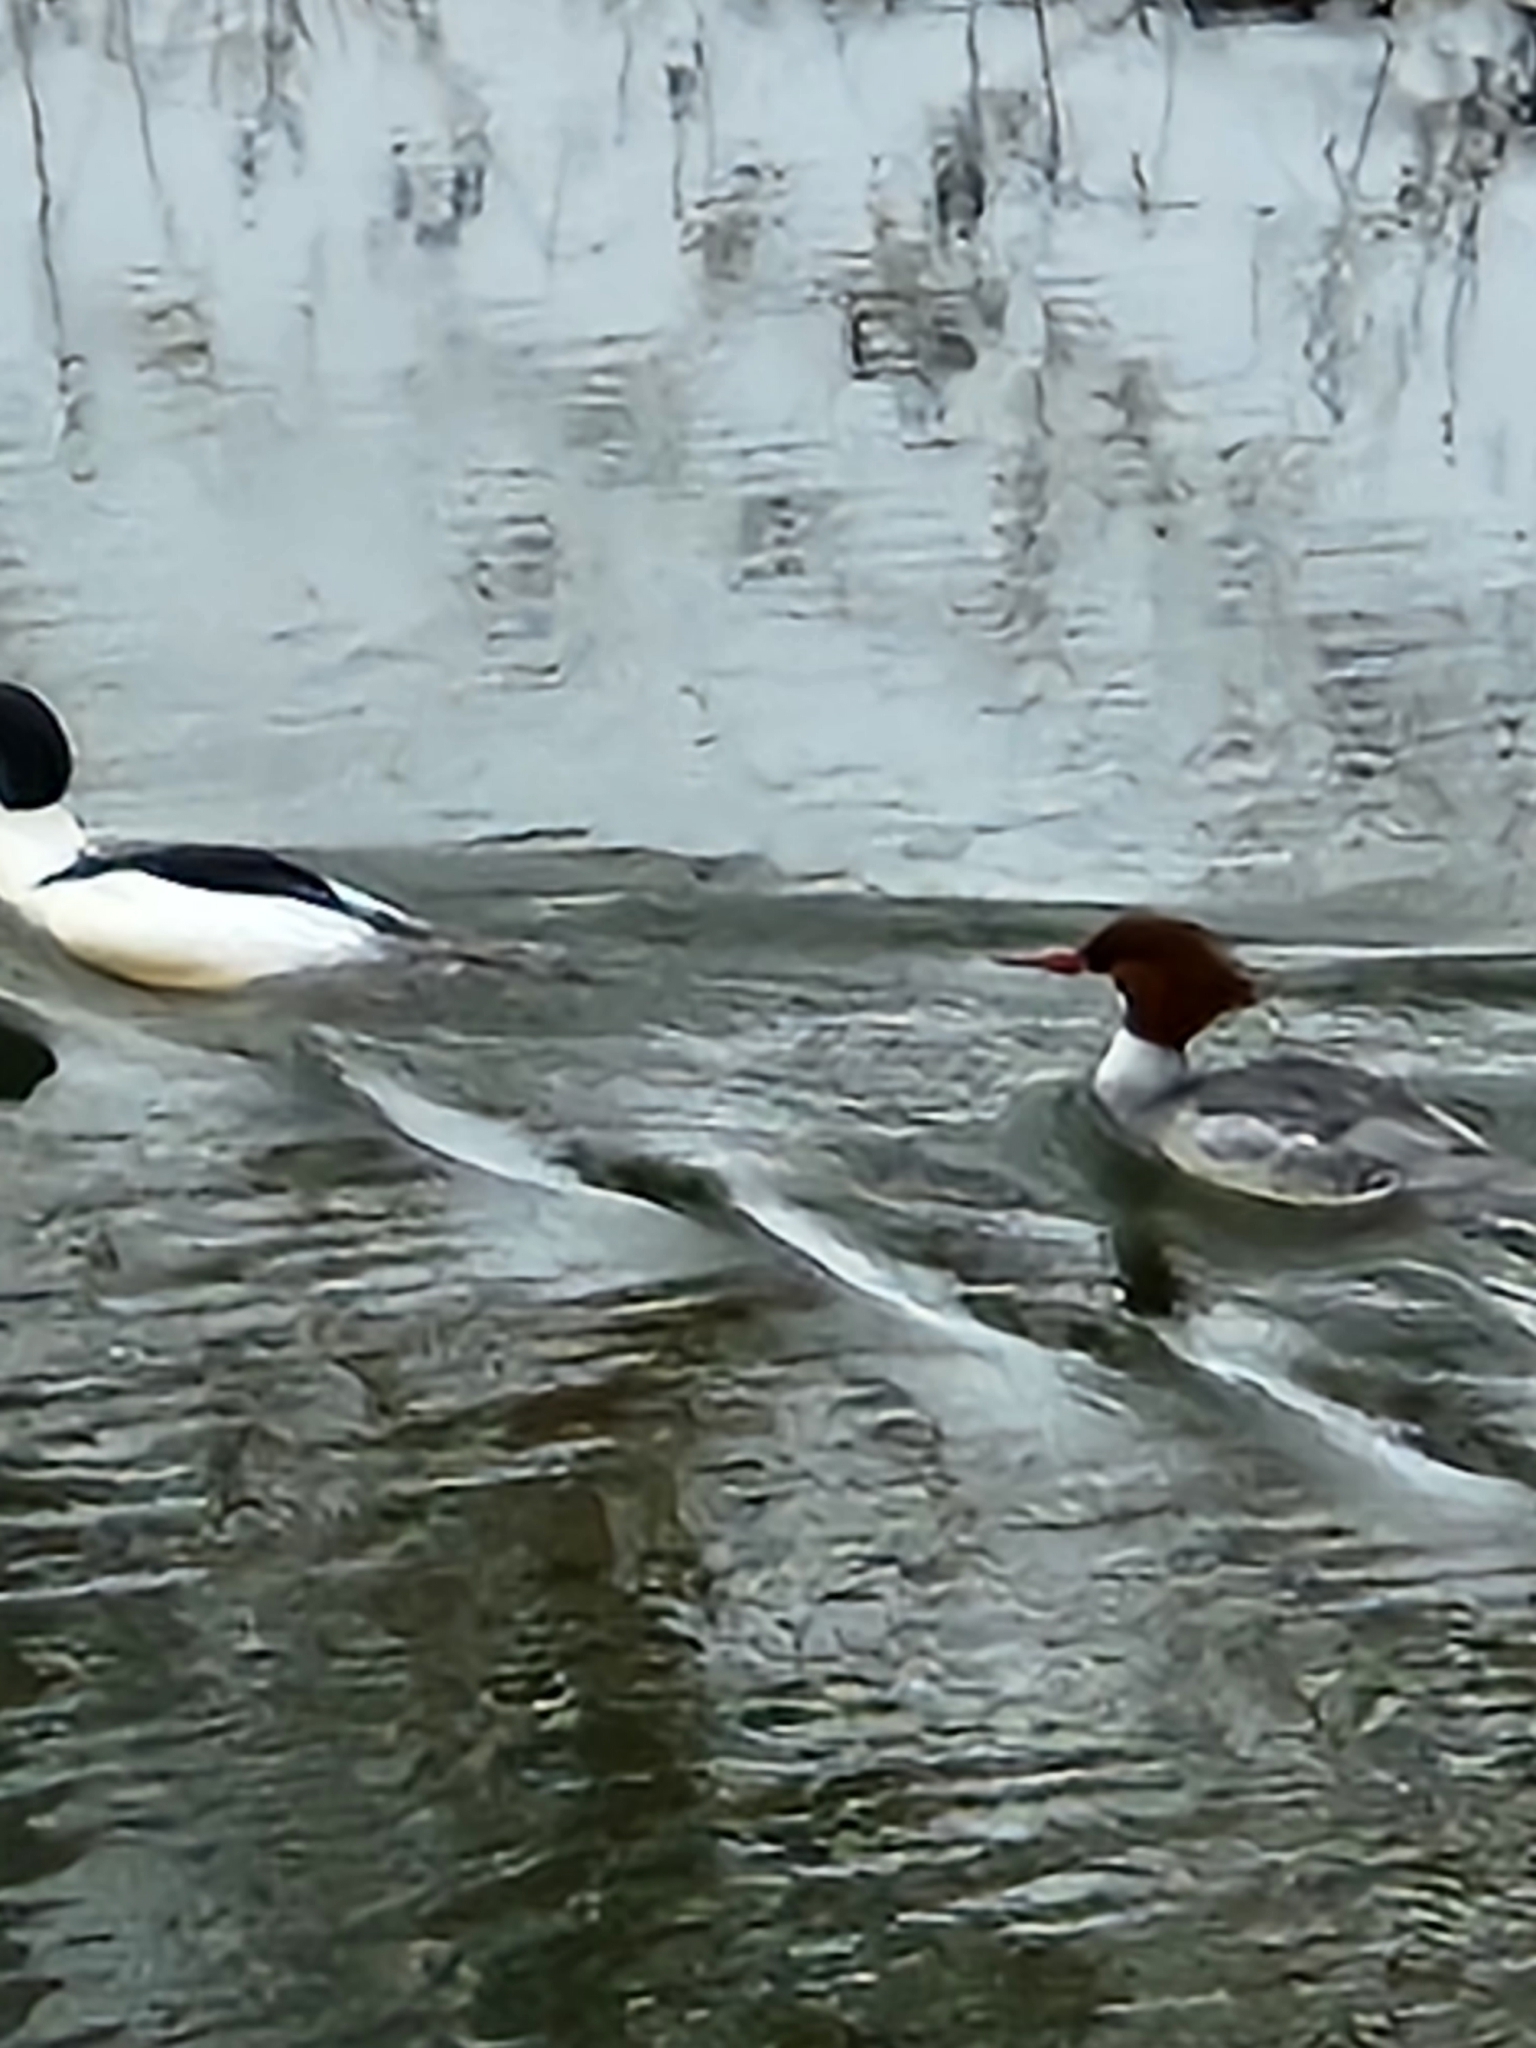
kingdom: Animalia
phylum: Chordata
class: Aves
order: Anseriformes
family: Anatidae
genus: Mergus
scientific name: Mergus merganser
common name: Common merganser
